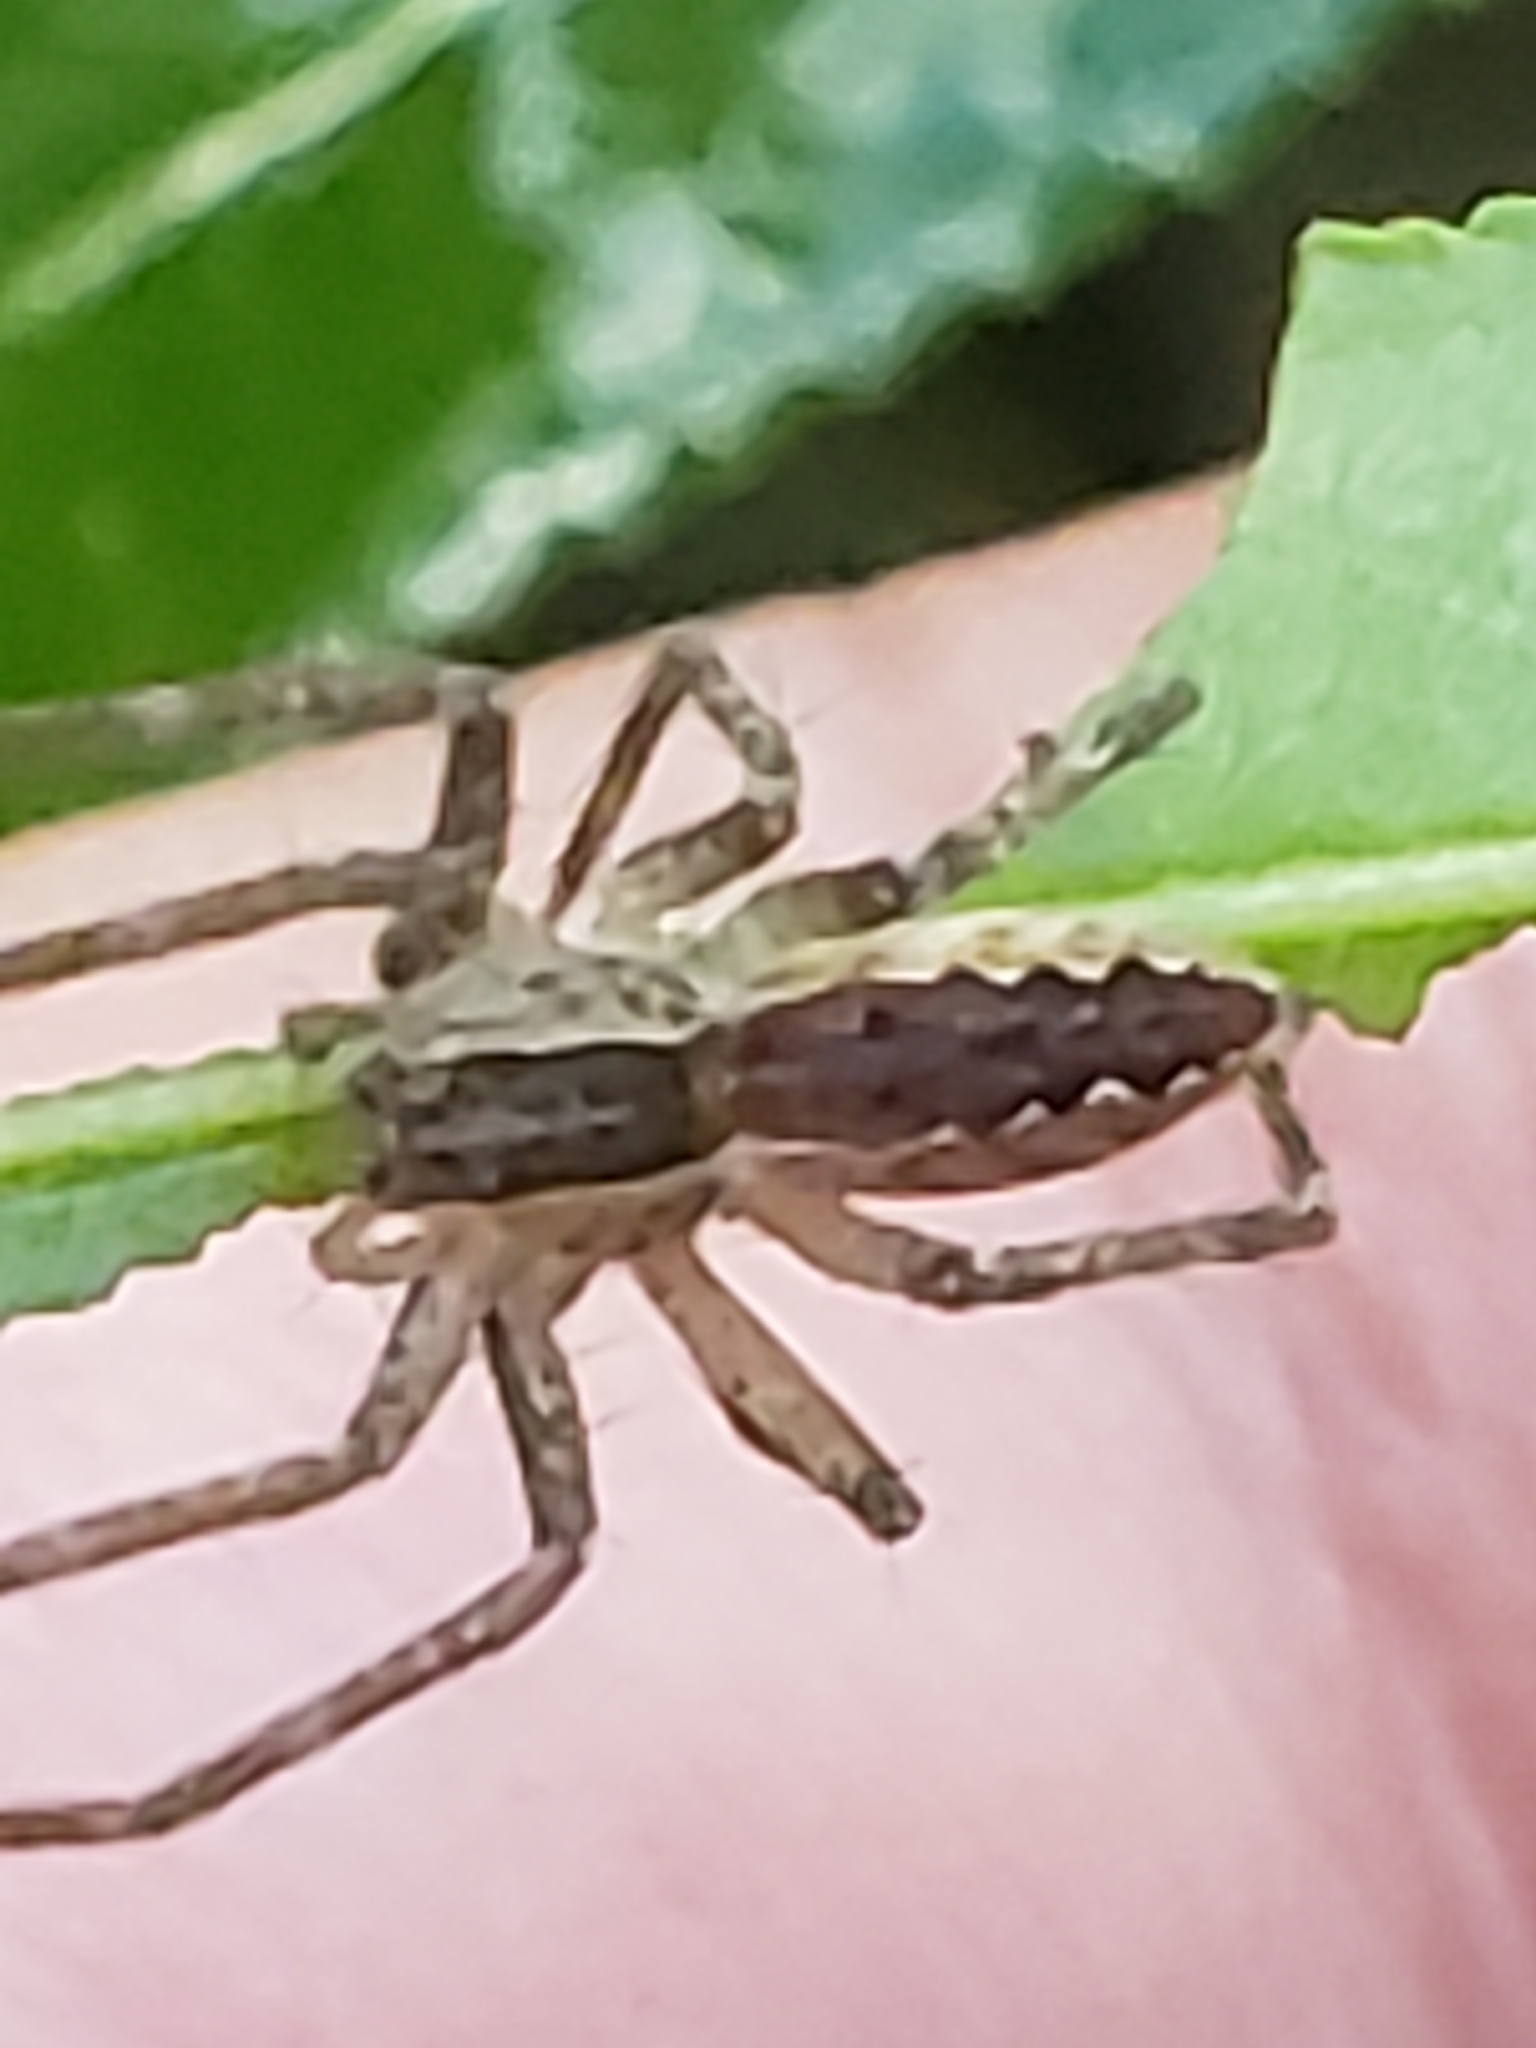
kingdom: Animalia
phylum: Arthropoda
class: Arachnida
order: Araneae
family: Pisauridae
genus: Pisaurina
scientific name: Pisaurina mira
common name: American nursery web spider
